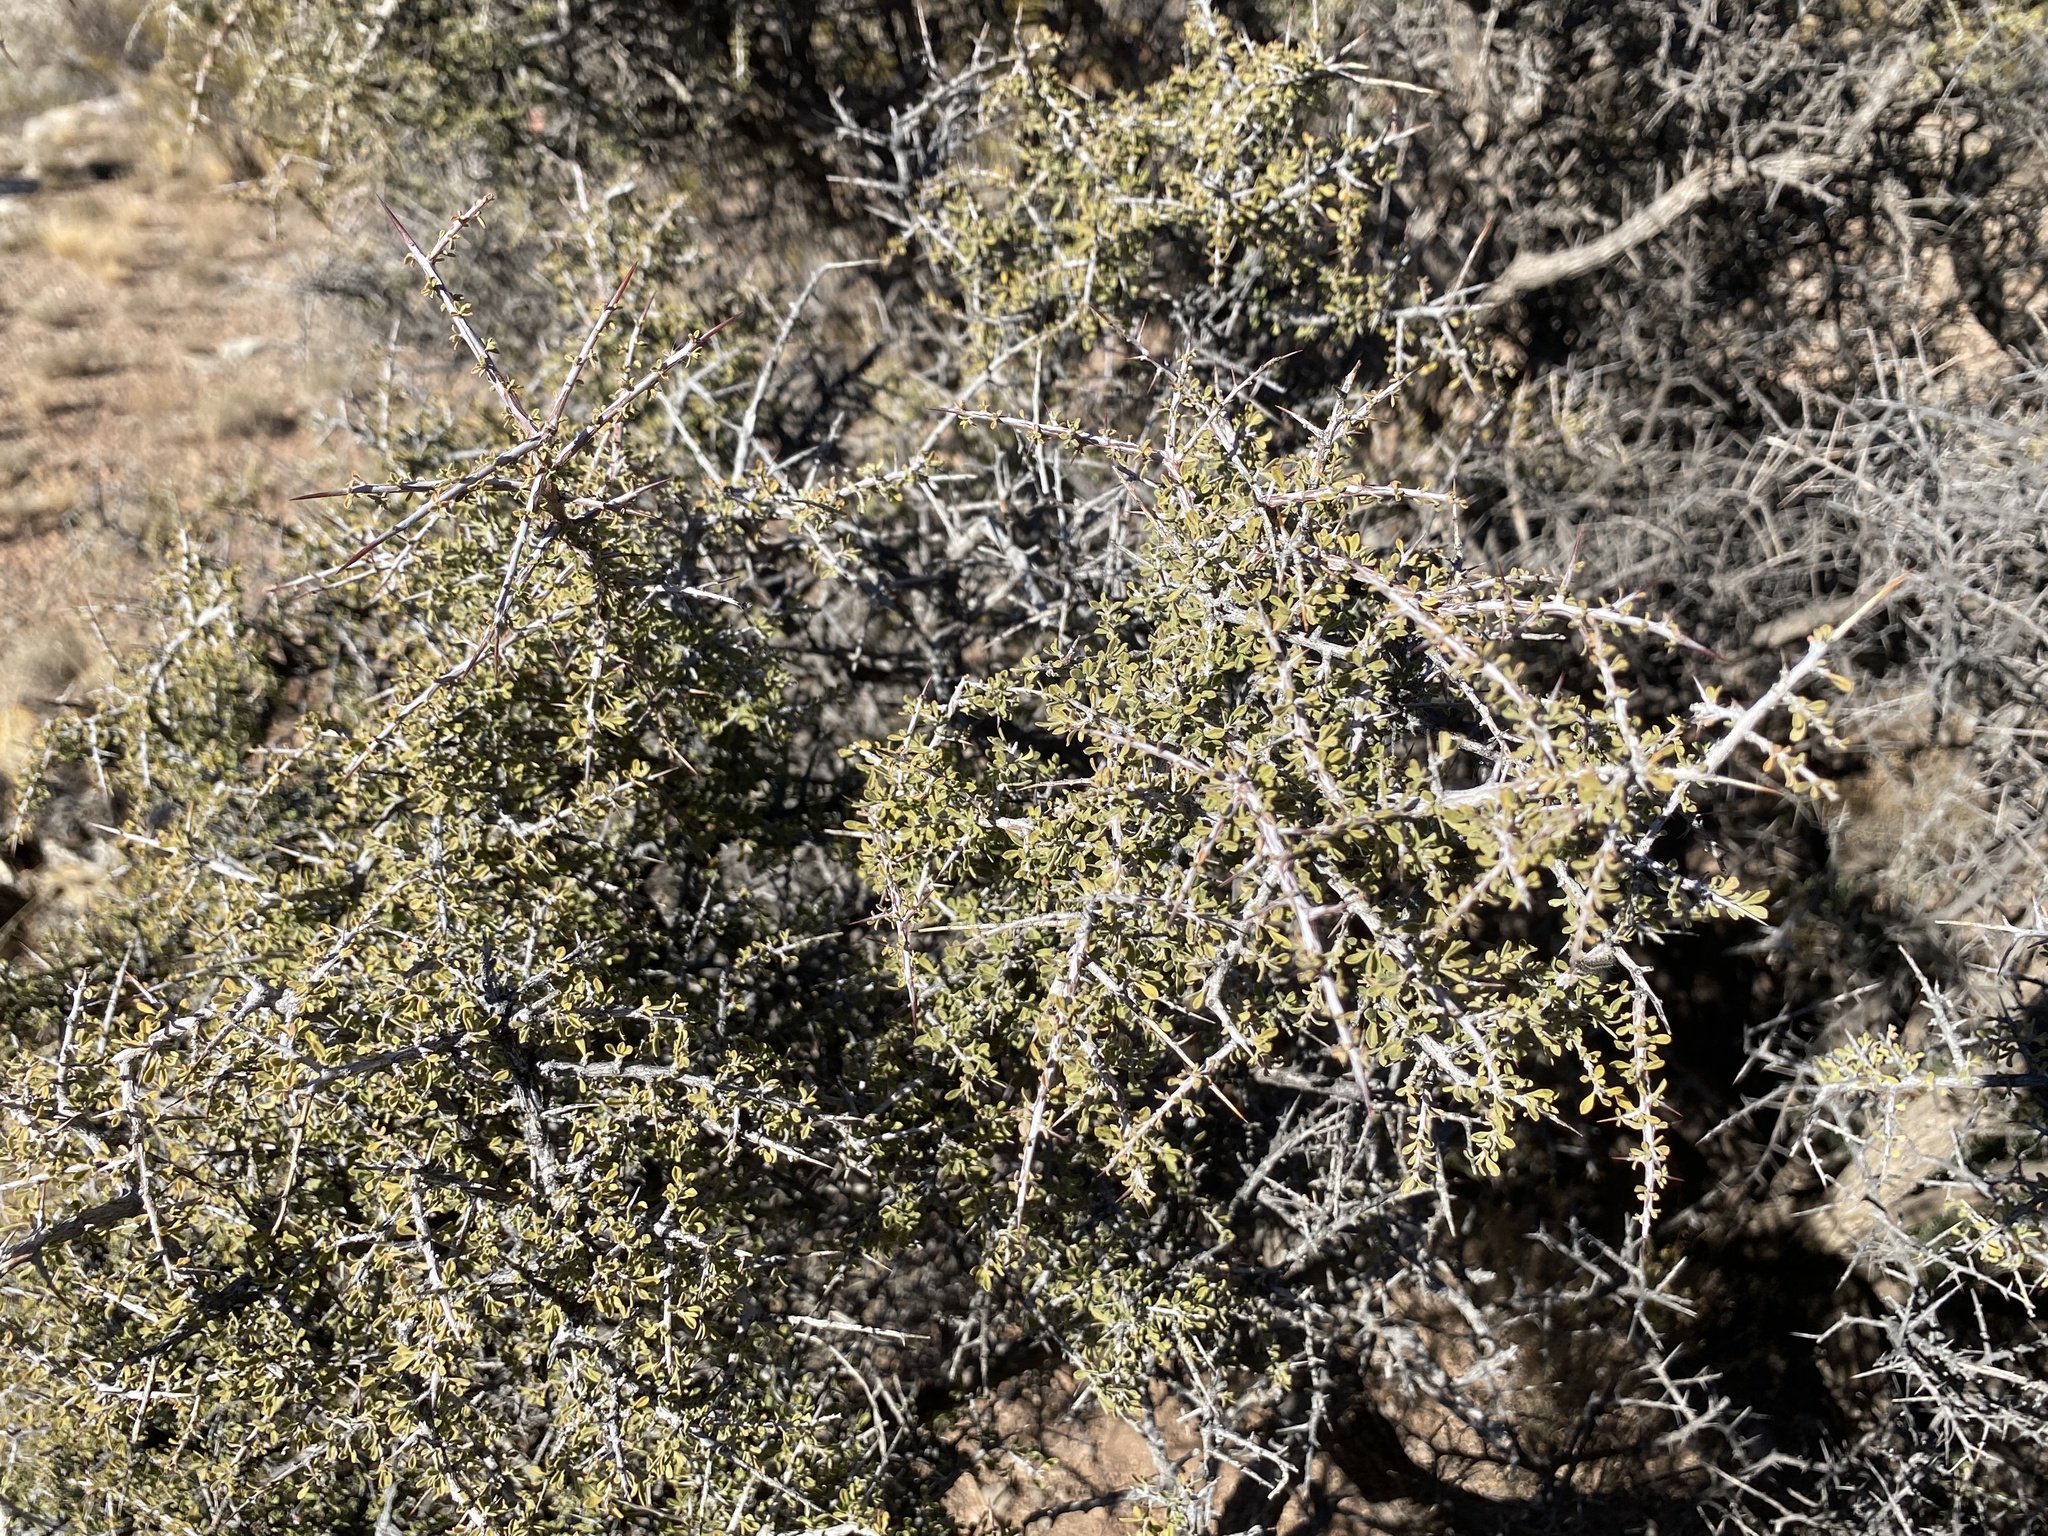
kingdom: Plantae
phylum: Tracheophyta
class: Magnoliopsida
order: Rosales
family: Rhamnaceae
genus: Condalia
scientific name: Condalia warnockii
